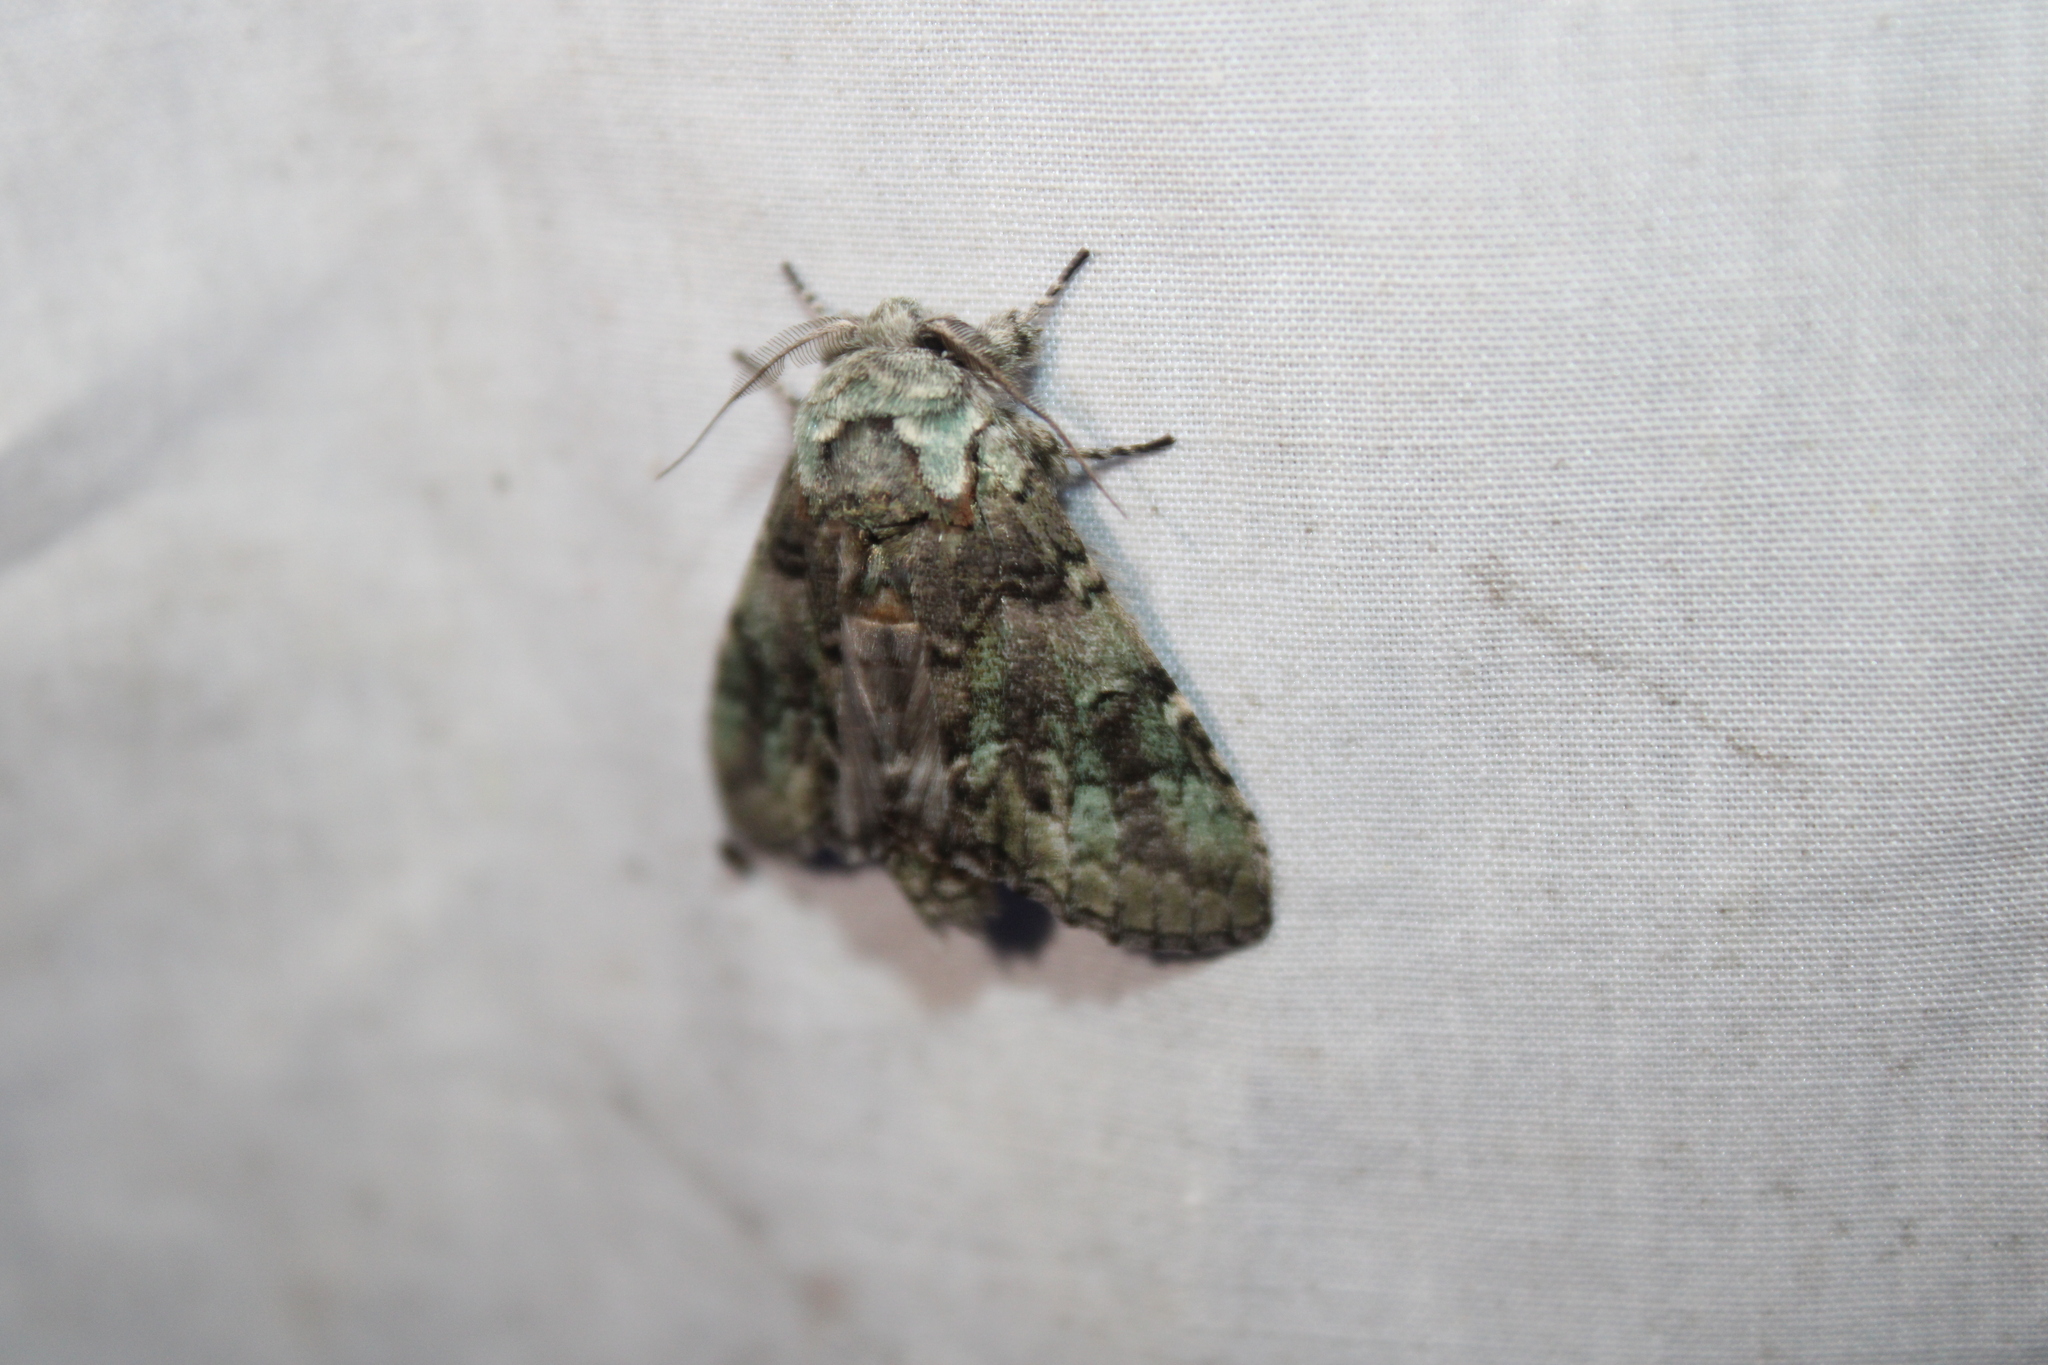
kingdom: Animalia
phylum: Arthropoda
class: Insecta
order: Lepidoptera
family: Notodontidae
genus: Macrurocampa
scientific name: Macrurocampa marthesia
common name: Mottled prominent
